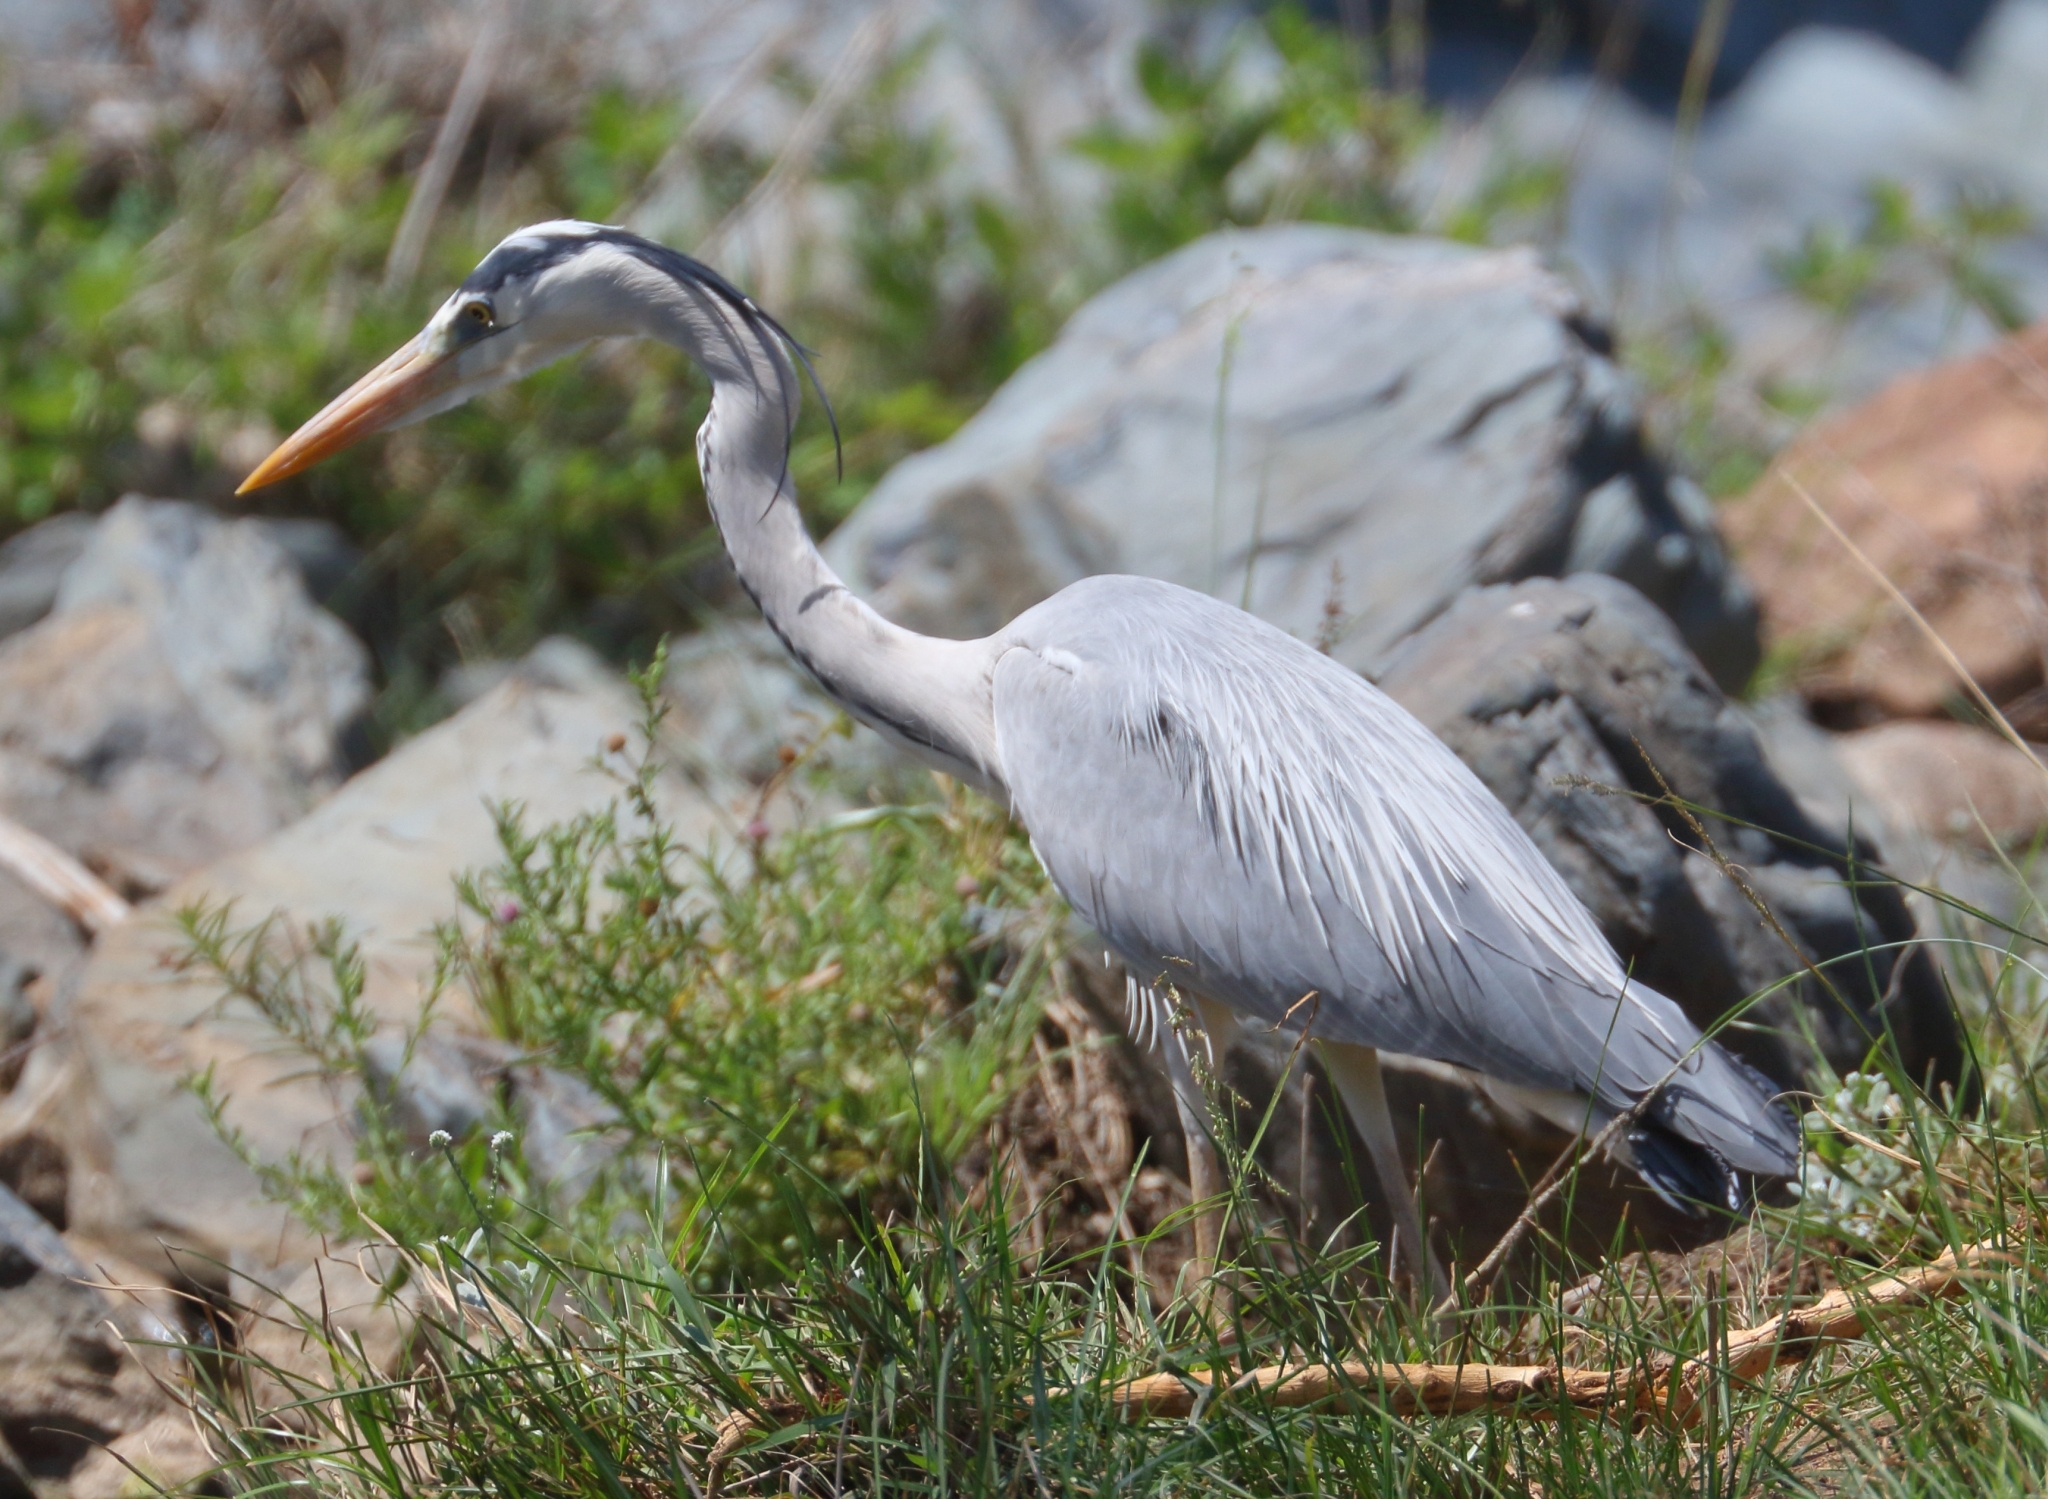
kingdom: Animalia
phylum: Chordata
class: Aves
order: Pelecaniformes
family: Ardeidae
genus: Ardea
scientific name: Ardea cinerea
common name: Grey heron
